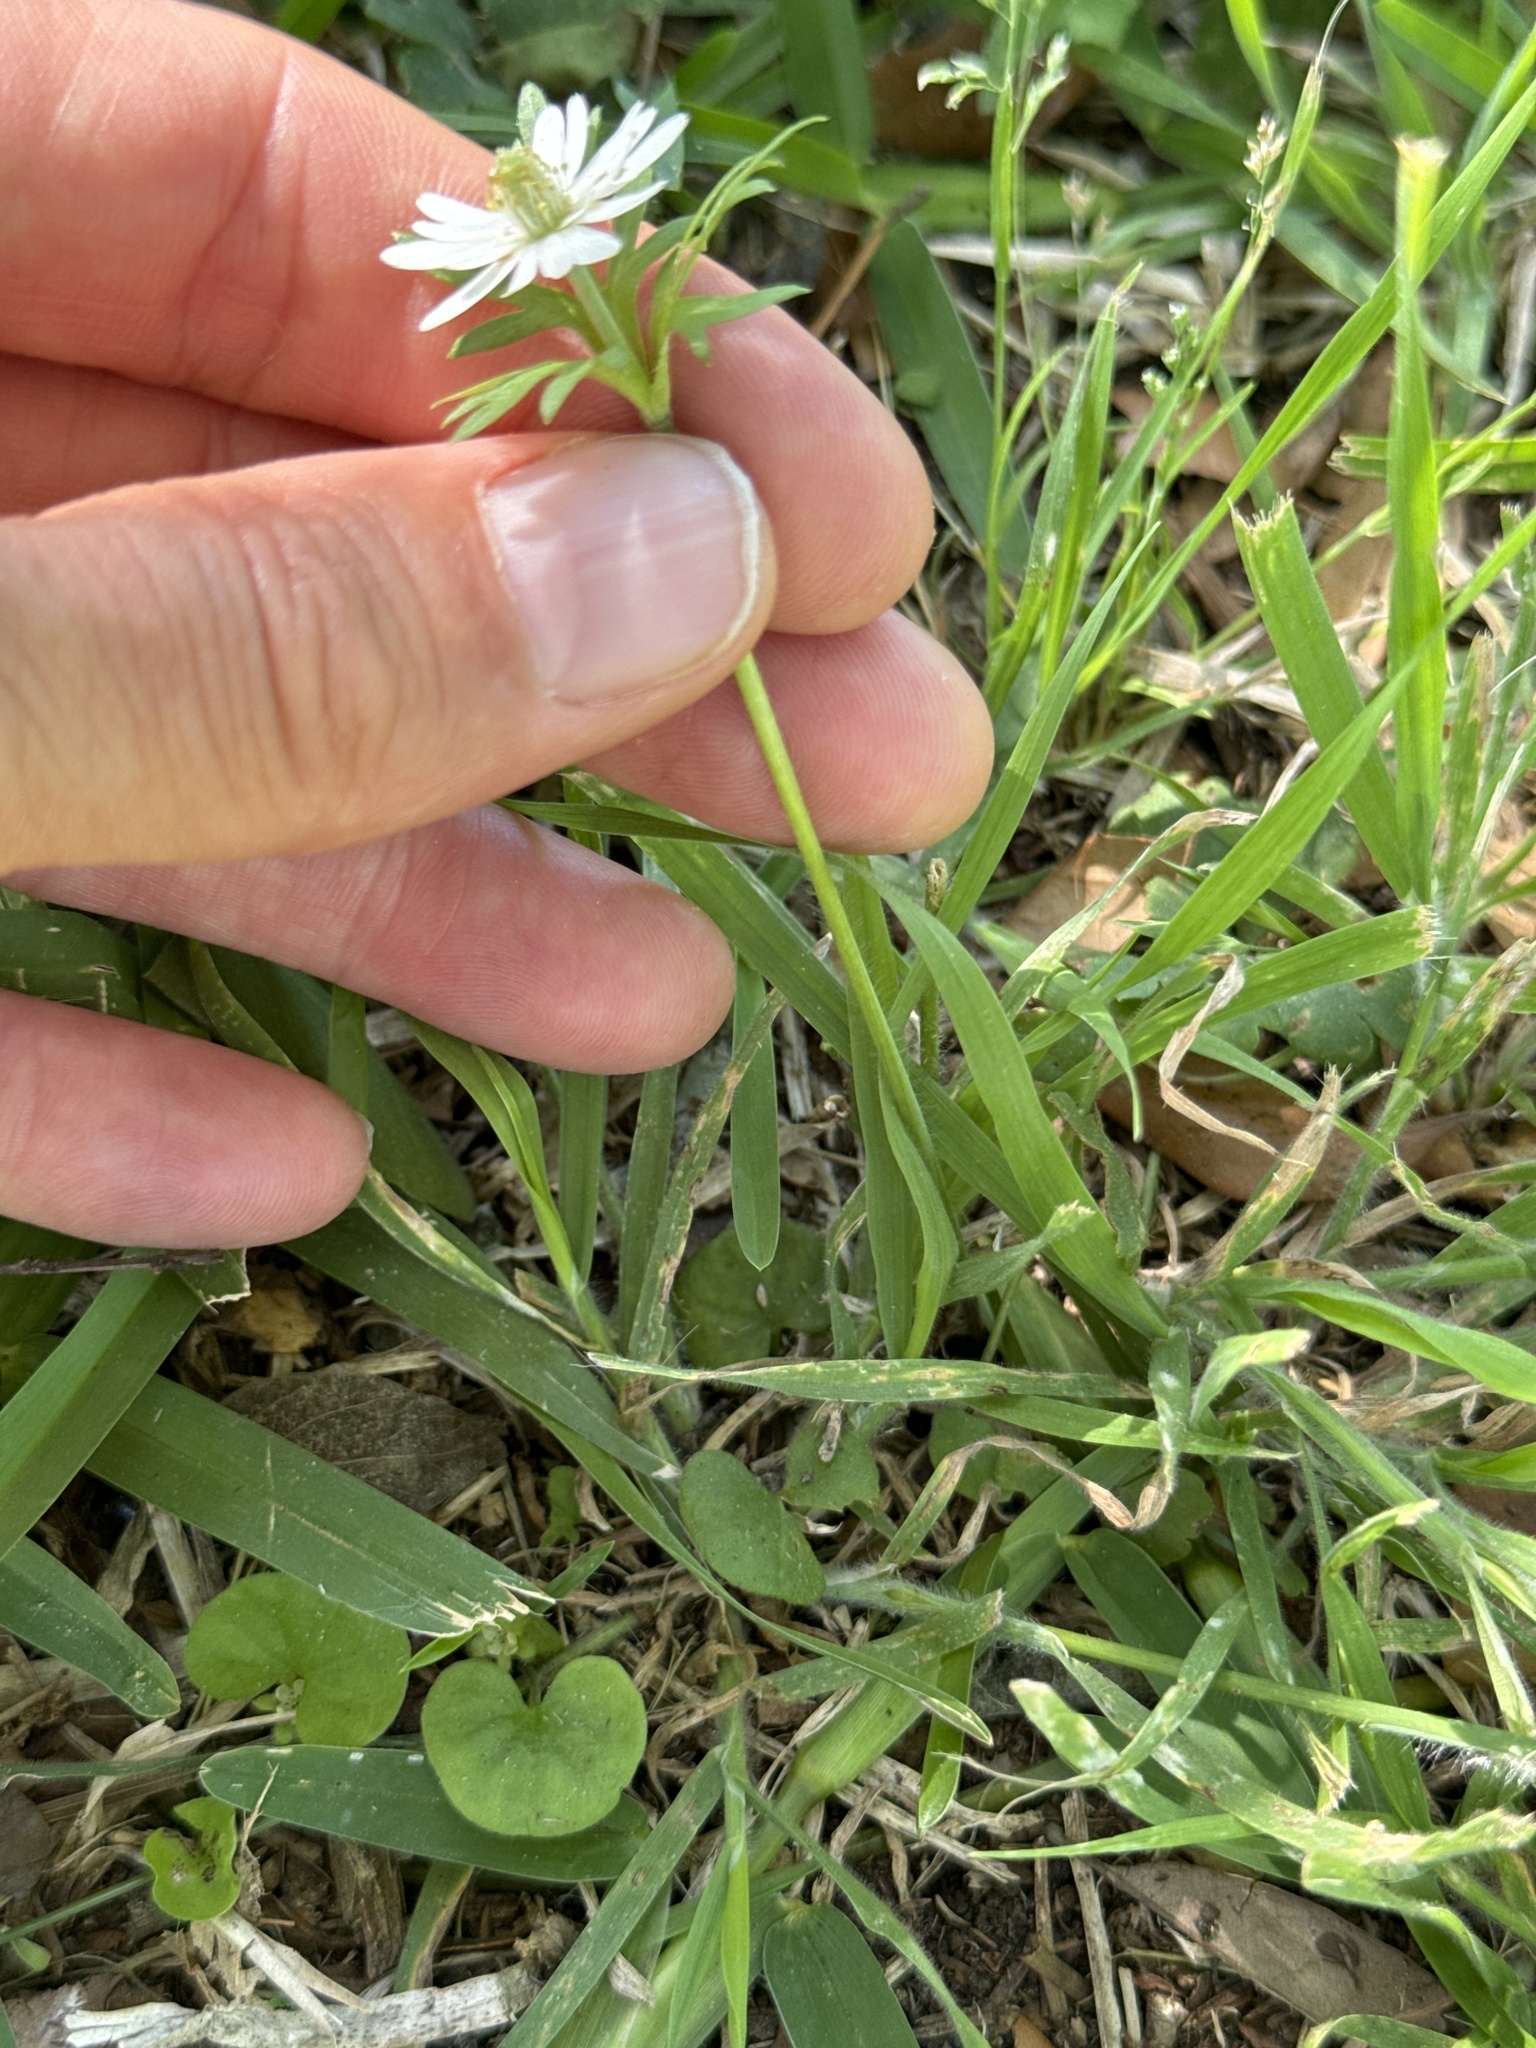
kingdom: Plantae
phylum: Tracheophyta
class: Magnoliopsida
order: Ranunculales
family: Ranunculaceae
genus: Anemone
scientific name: Anemone berlandieri
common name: Ten-petal anemone
